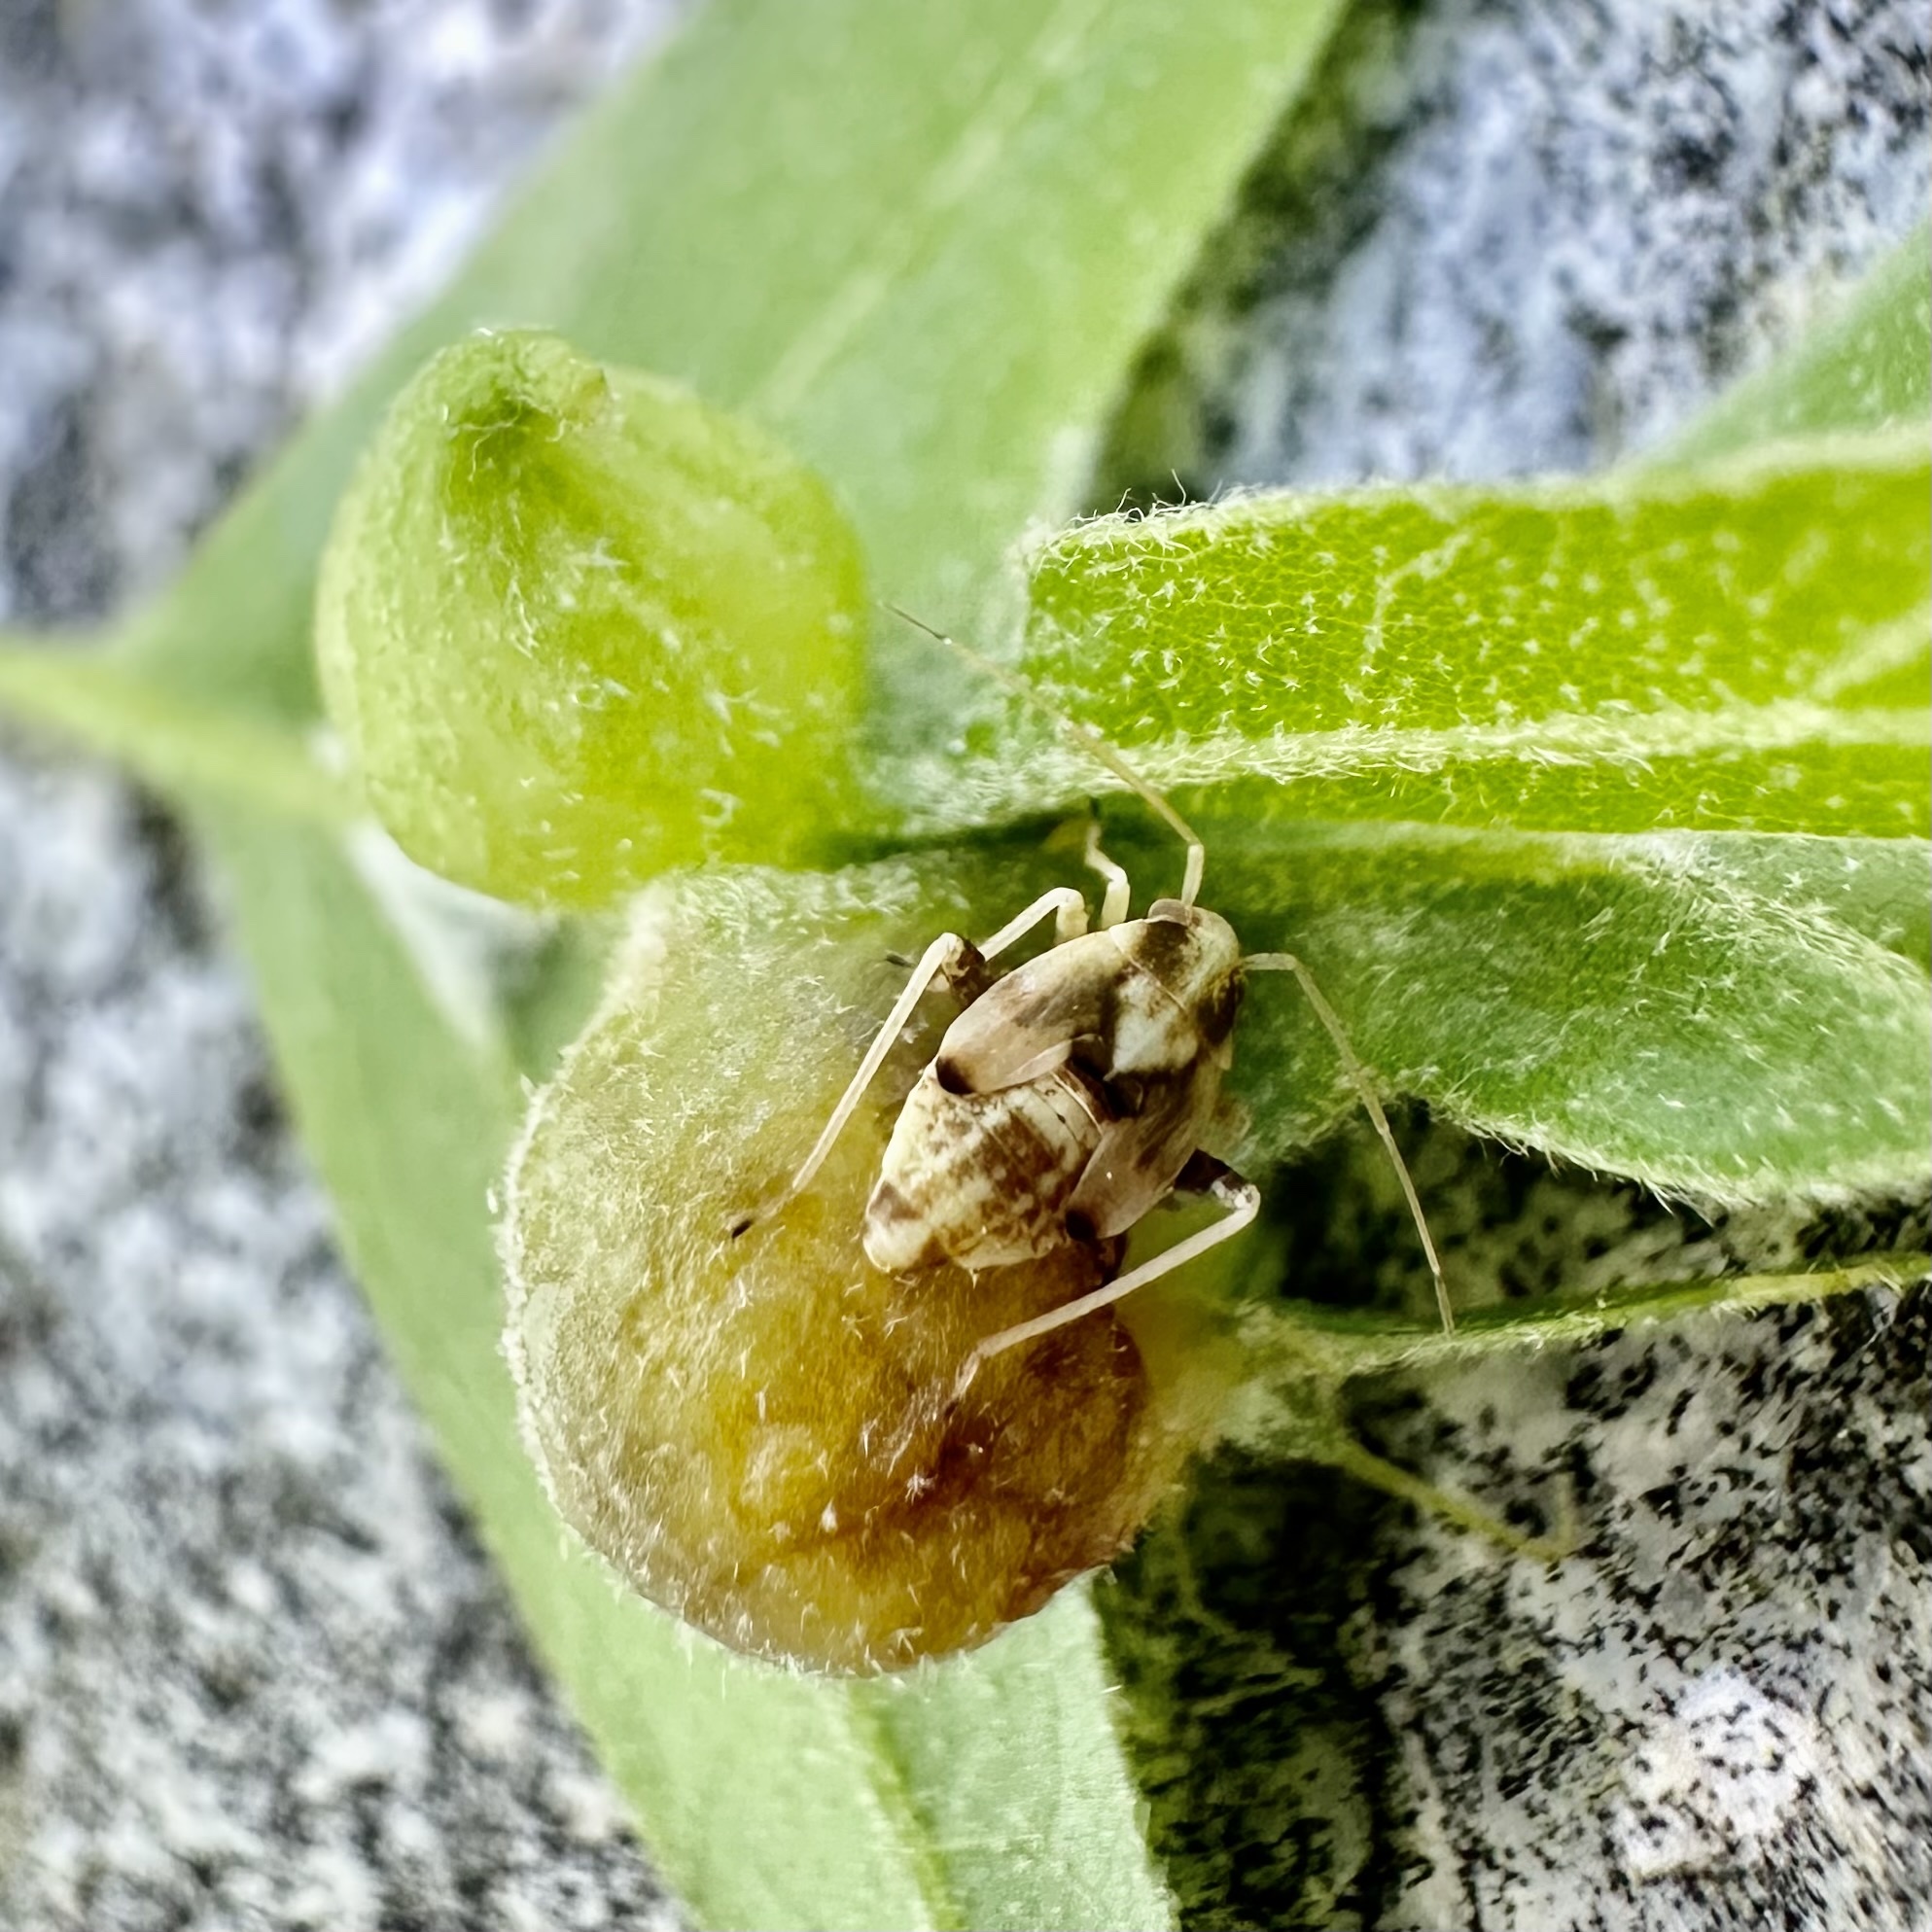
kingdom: Animalia
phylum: Arthropoda
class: Insecta
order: Hymenoptera
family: Cynipidae
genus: Dryocosmus
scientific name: Dryocosmus
